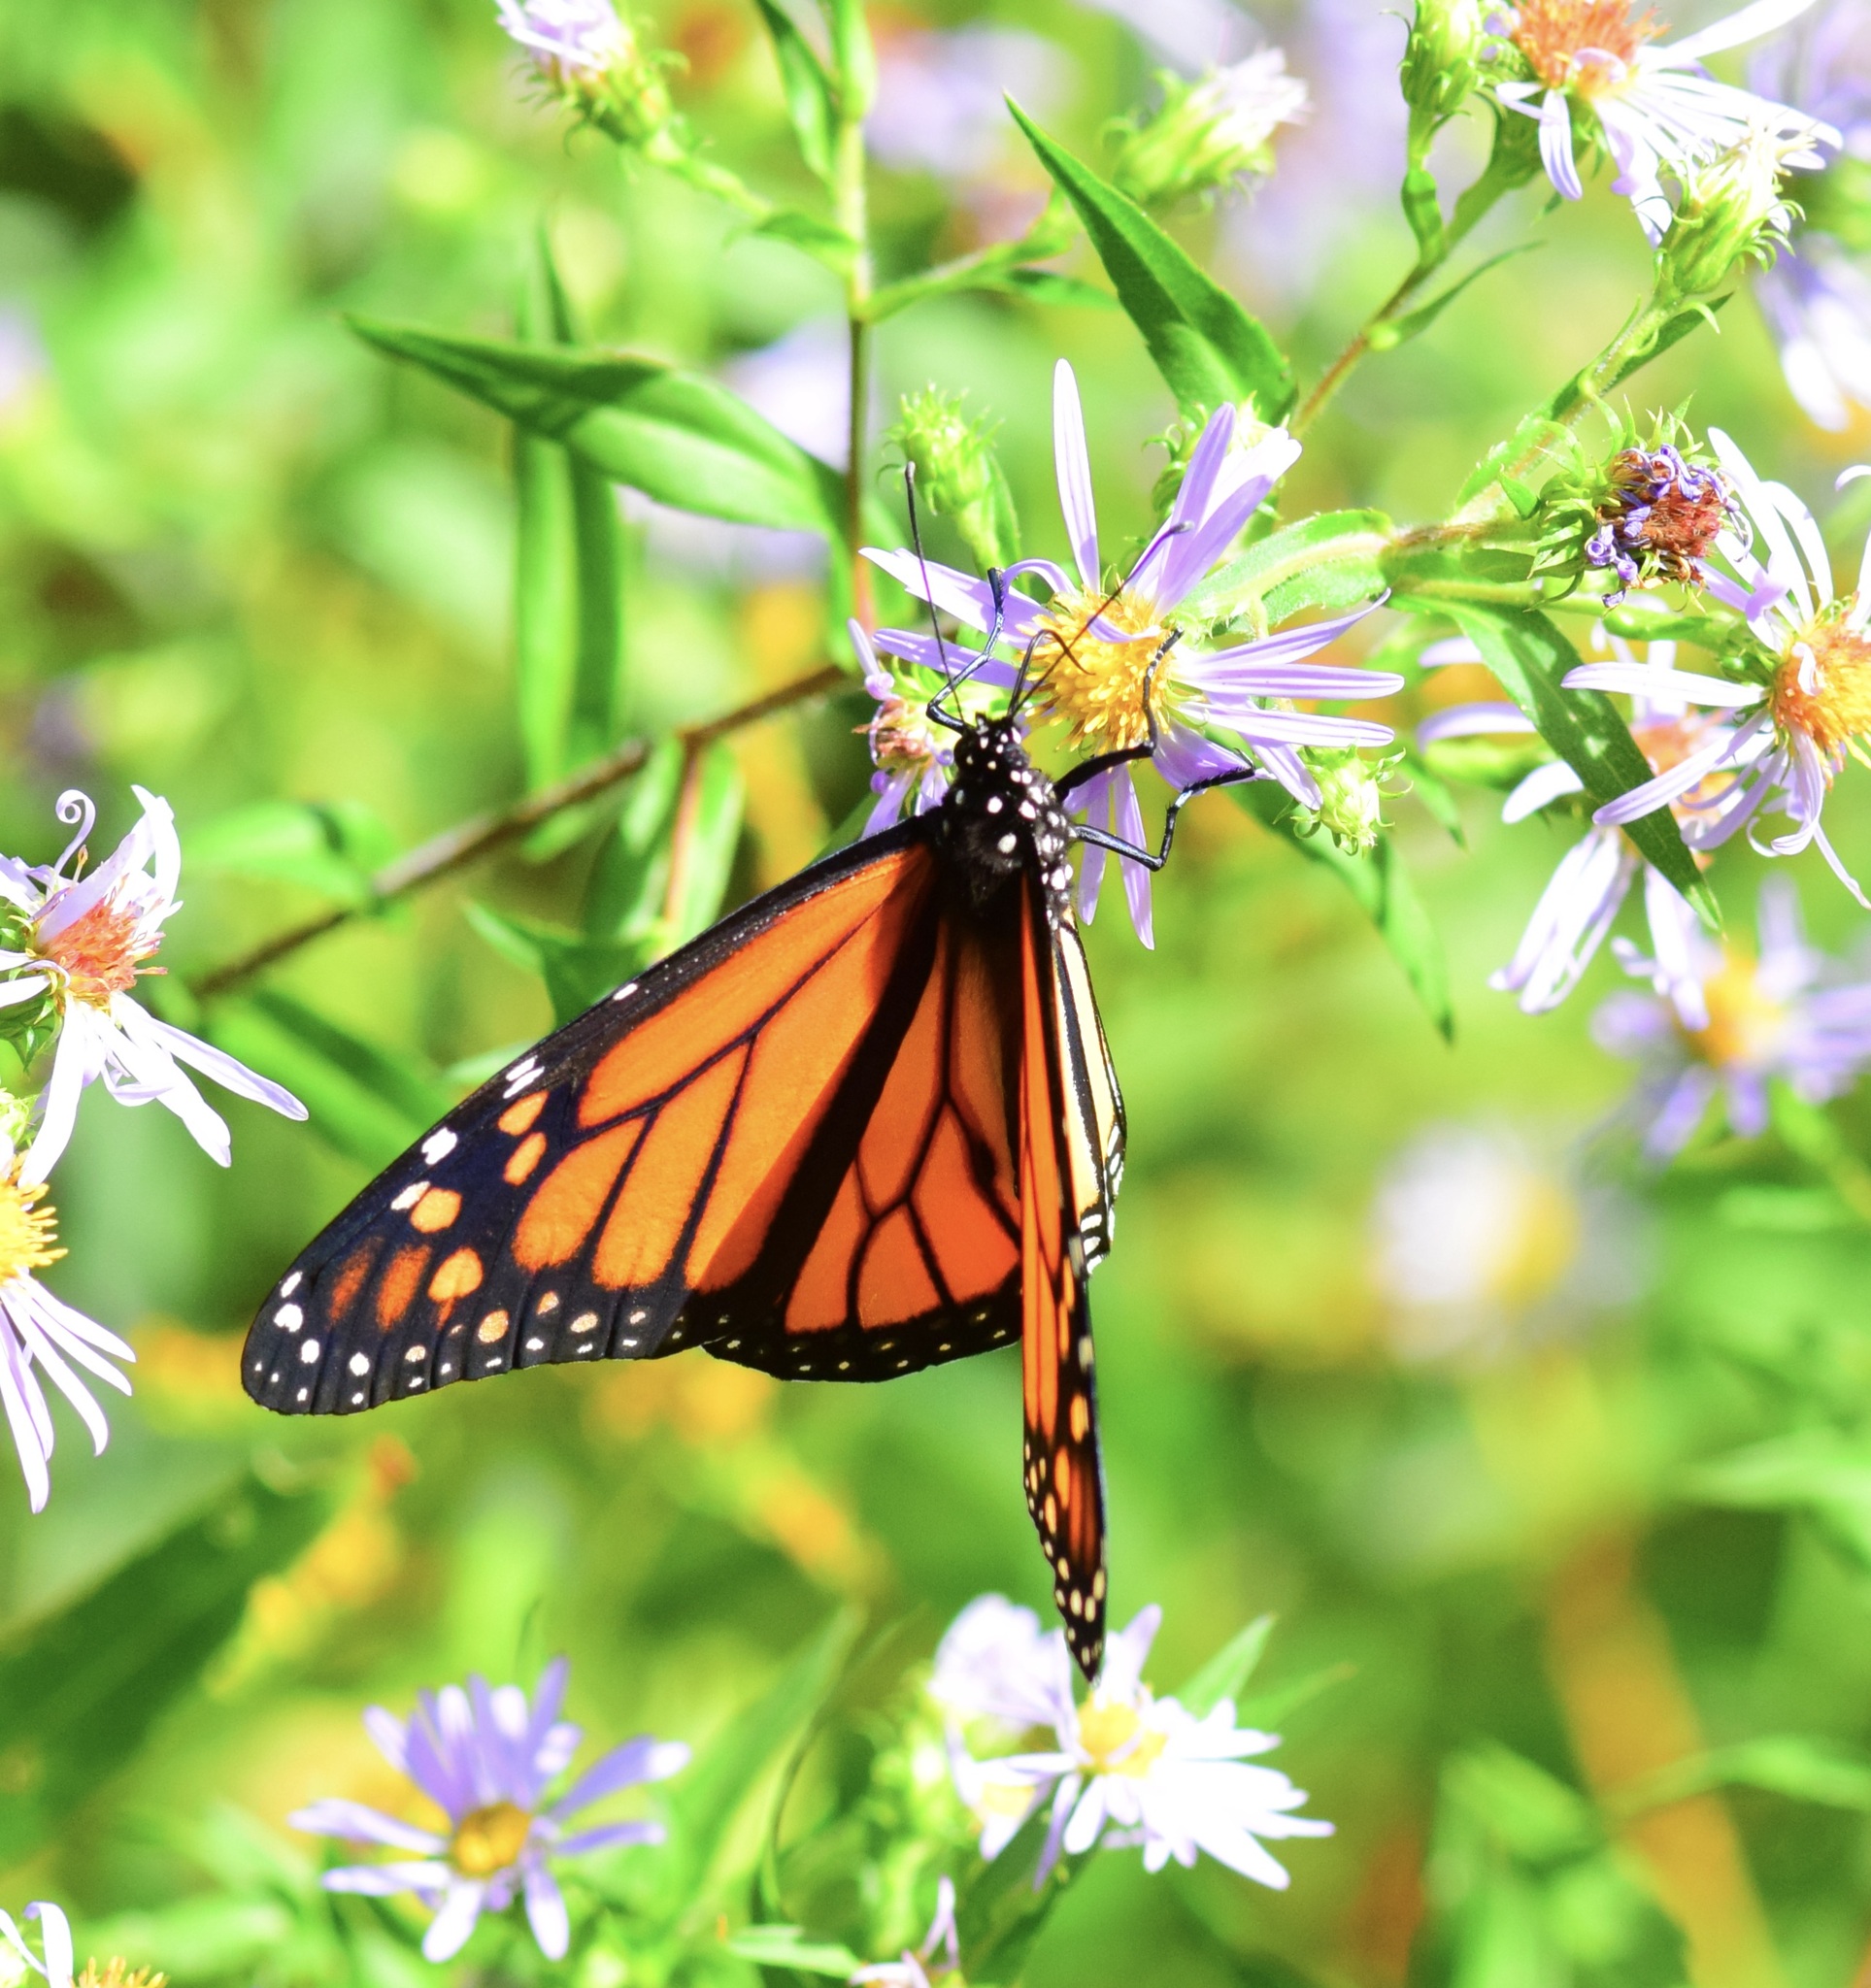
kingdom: Animalia
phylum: Arthropoda
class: Insecta
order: Lepidoptera
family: Nymphalidae
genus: Danaus
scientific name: Danaus plexippus
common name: Monarch
